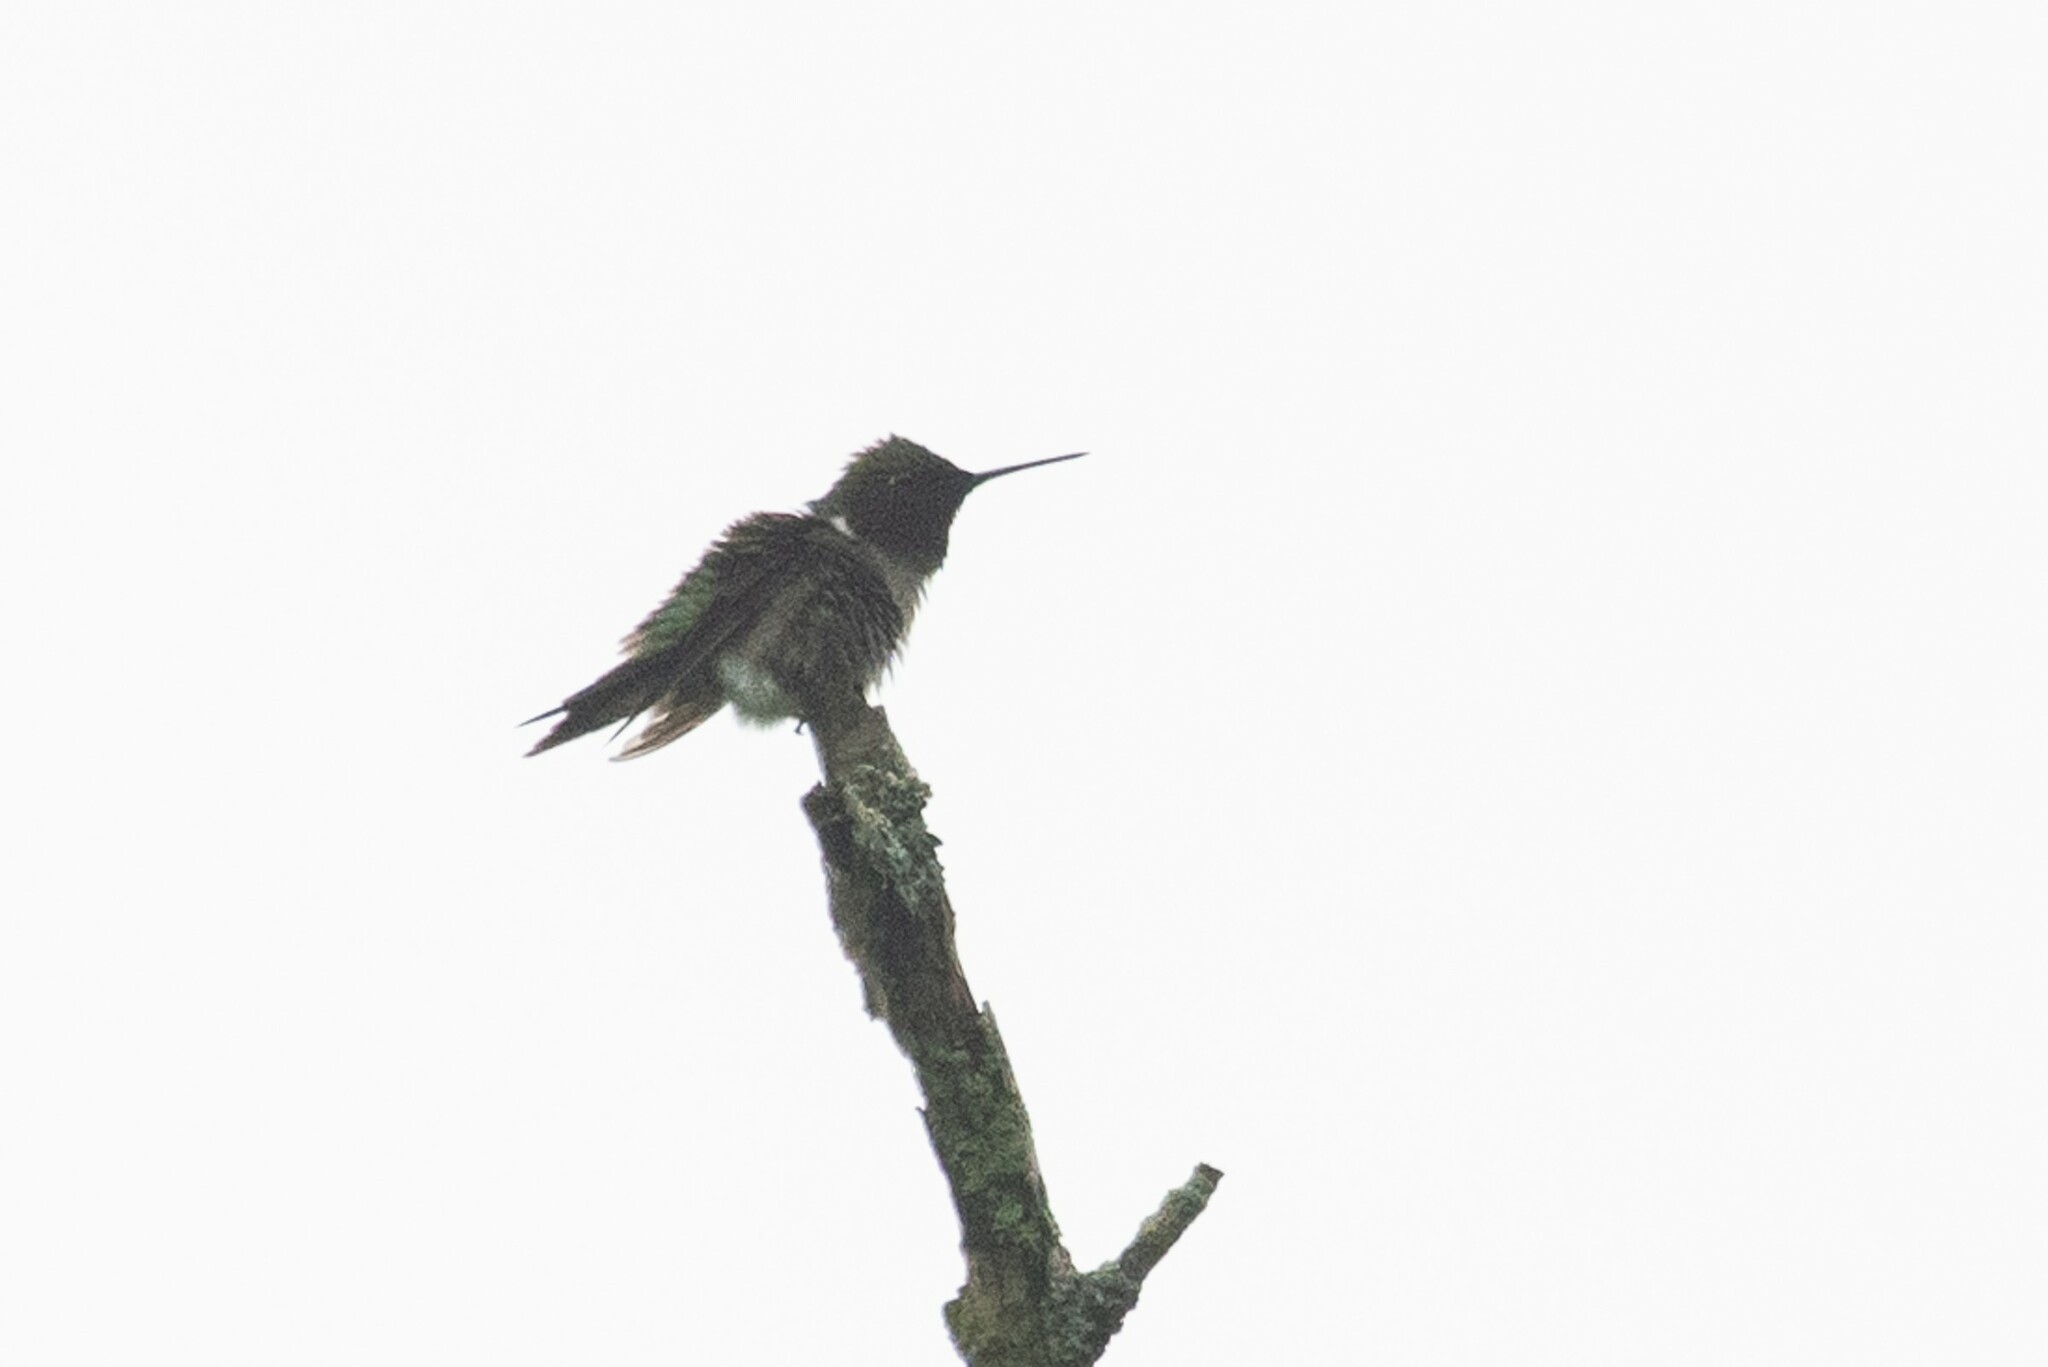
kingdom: Animalia
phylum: Chordata
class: Aves
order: Apodiformes
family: Trochilidae
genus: Archilochus
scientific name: Archilochus colubris
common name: Ruby-throated hummingbird
